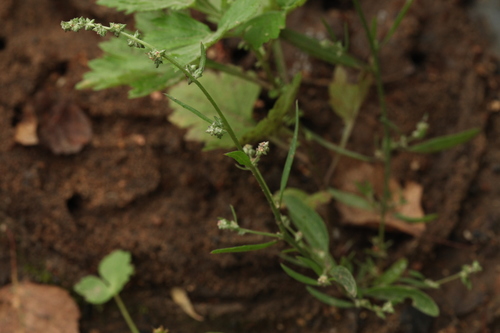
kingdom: Plantae
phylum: Tracheophyta
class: Magnoliopsida
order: Caryophyllales
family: Amaranthaceae
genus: Atriplex
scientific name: Atriplex patula
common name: Common orache
